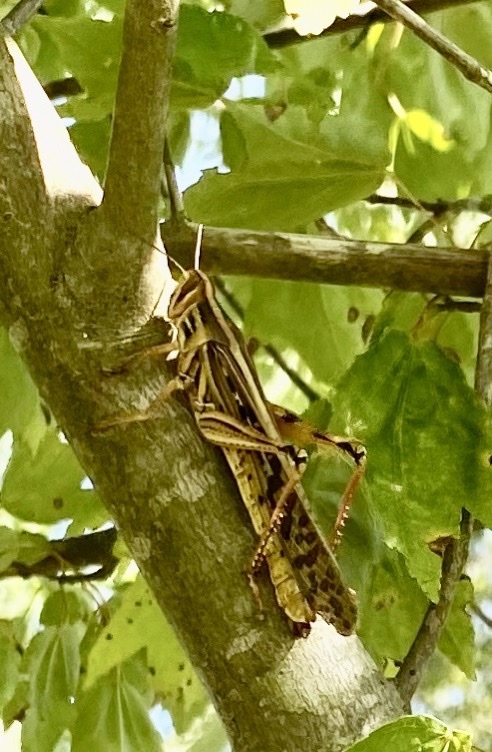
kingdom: Animalia
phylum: Arthropoda
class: Insecta
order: Orthoptera
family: Acrididae
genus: Schistocerca
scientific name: Schistocerca americana
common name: American bird locust
